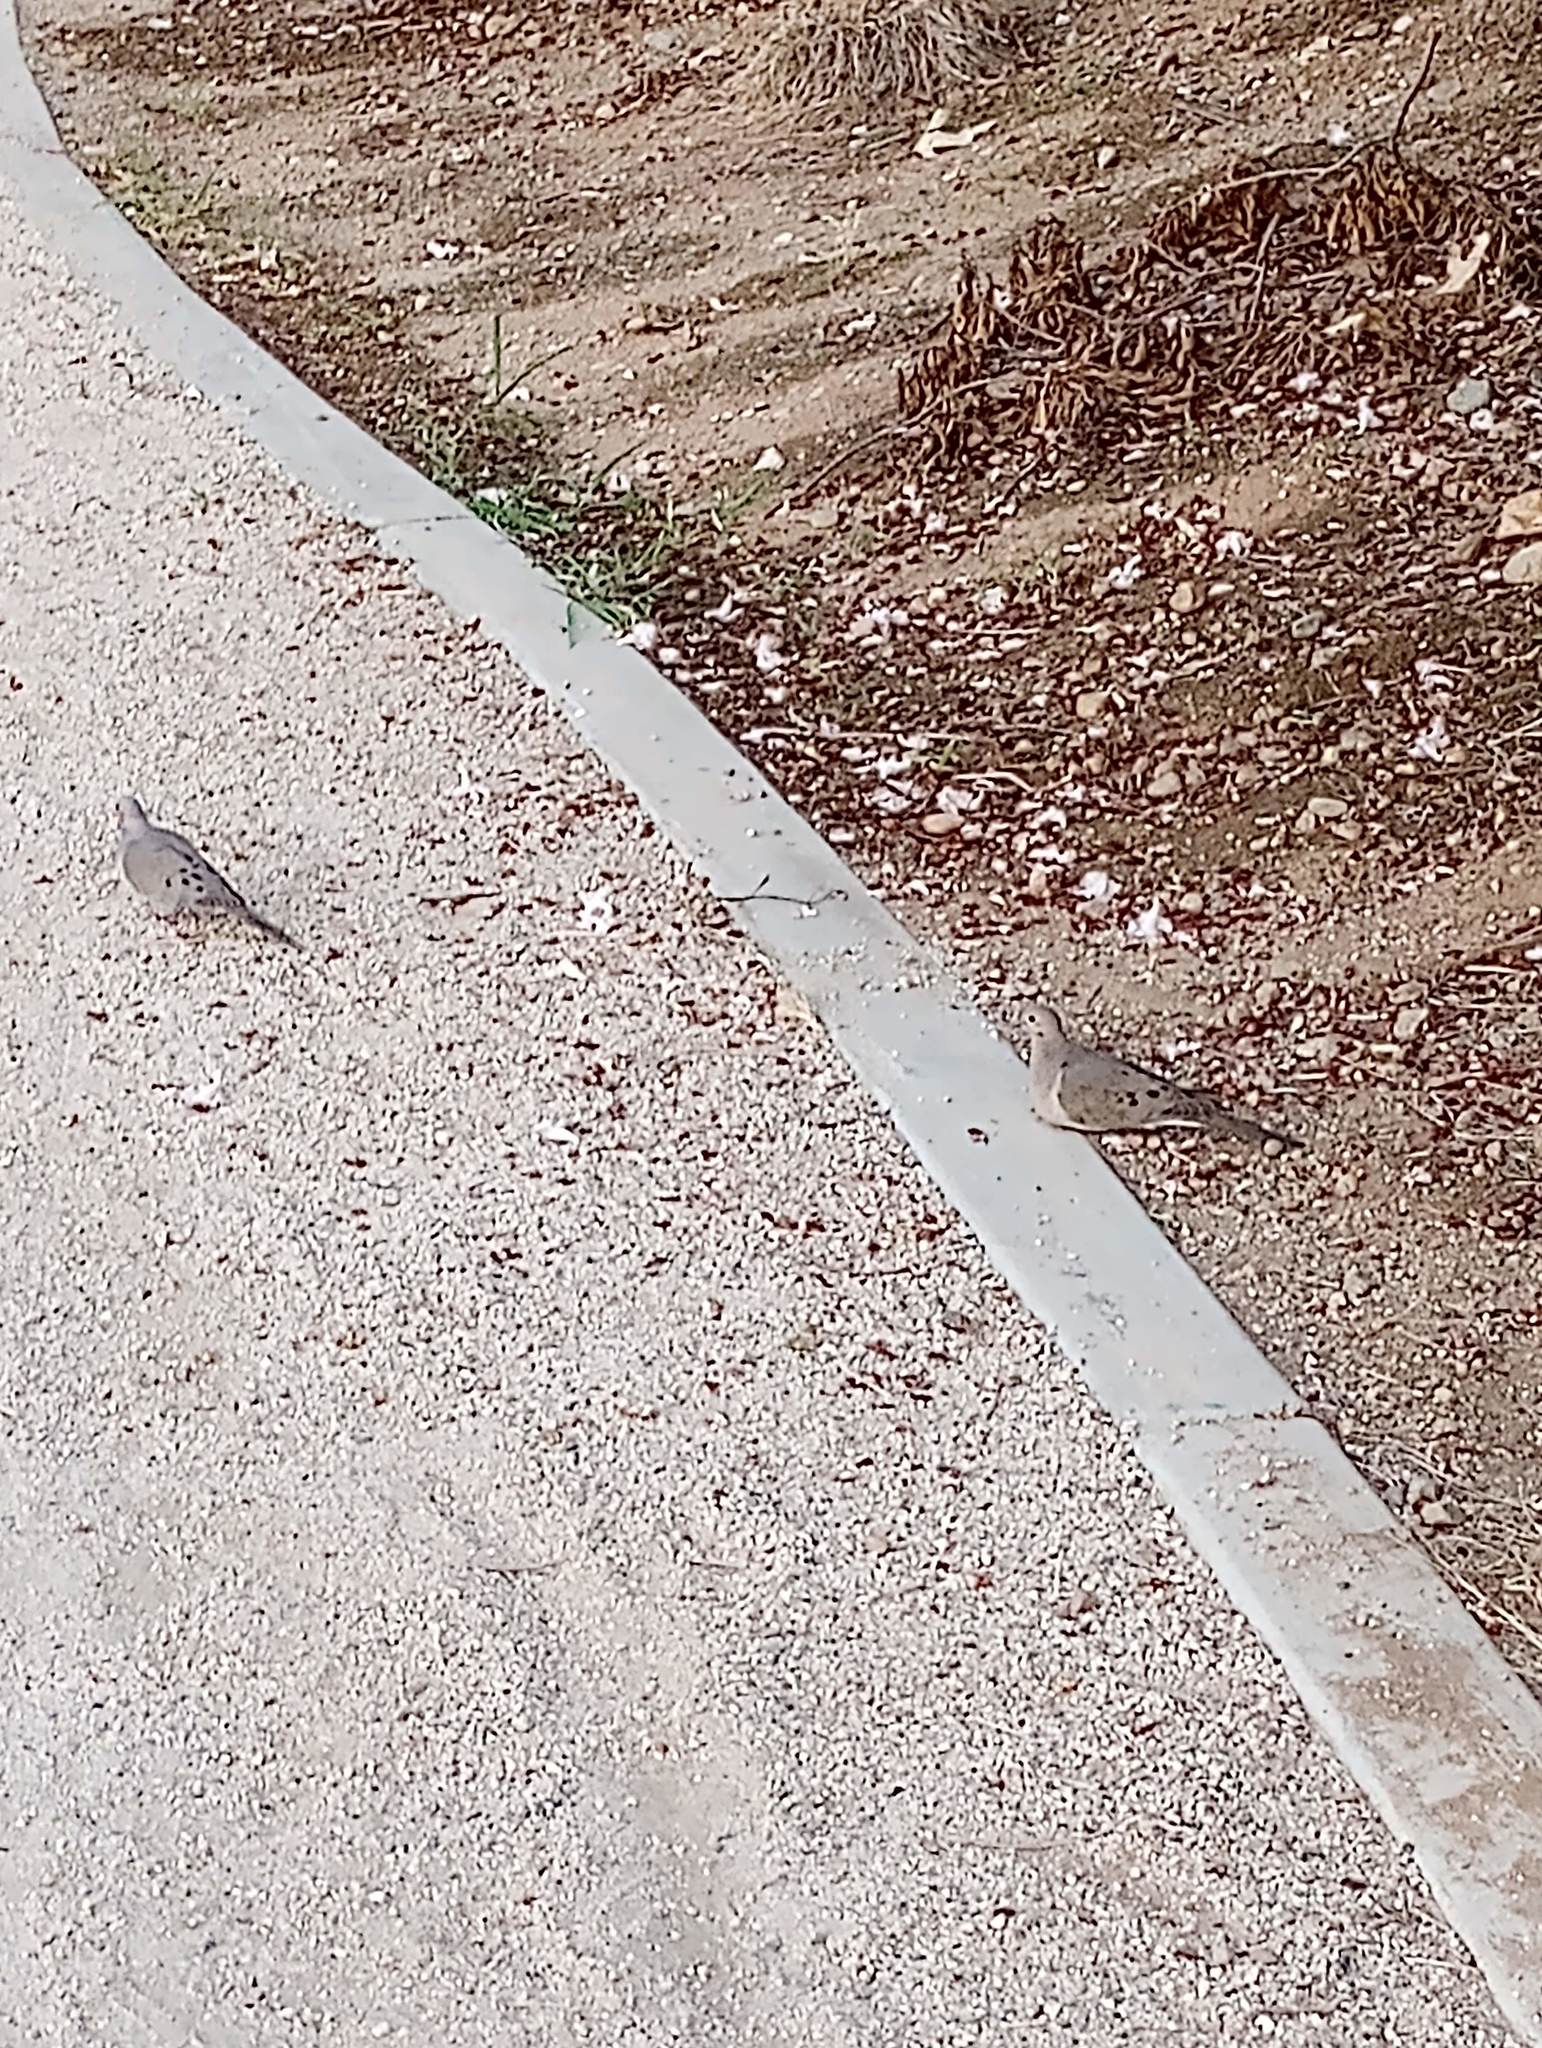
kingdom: Animalia
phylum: Chordata
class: Aves
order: Columbiformes
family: Columbidae
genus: Zenaida
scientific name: Zenaida macroura
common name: Mourning dove
